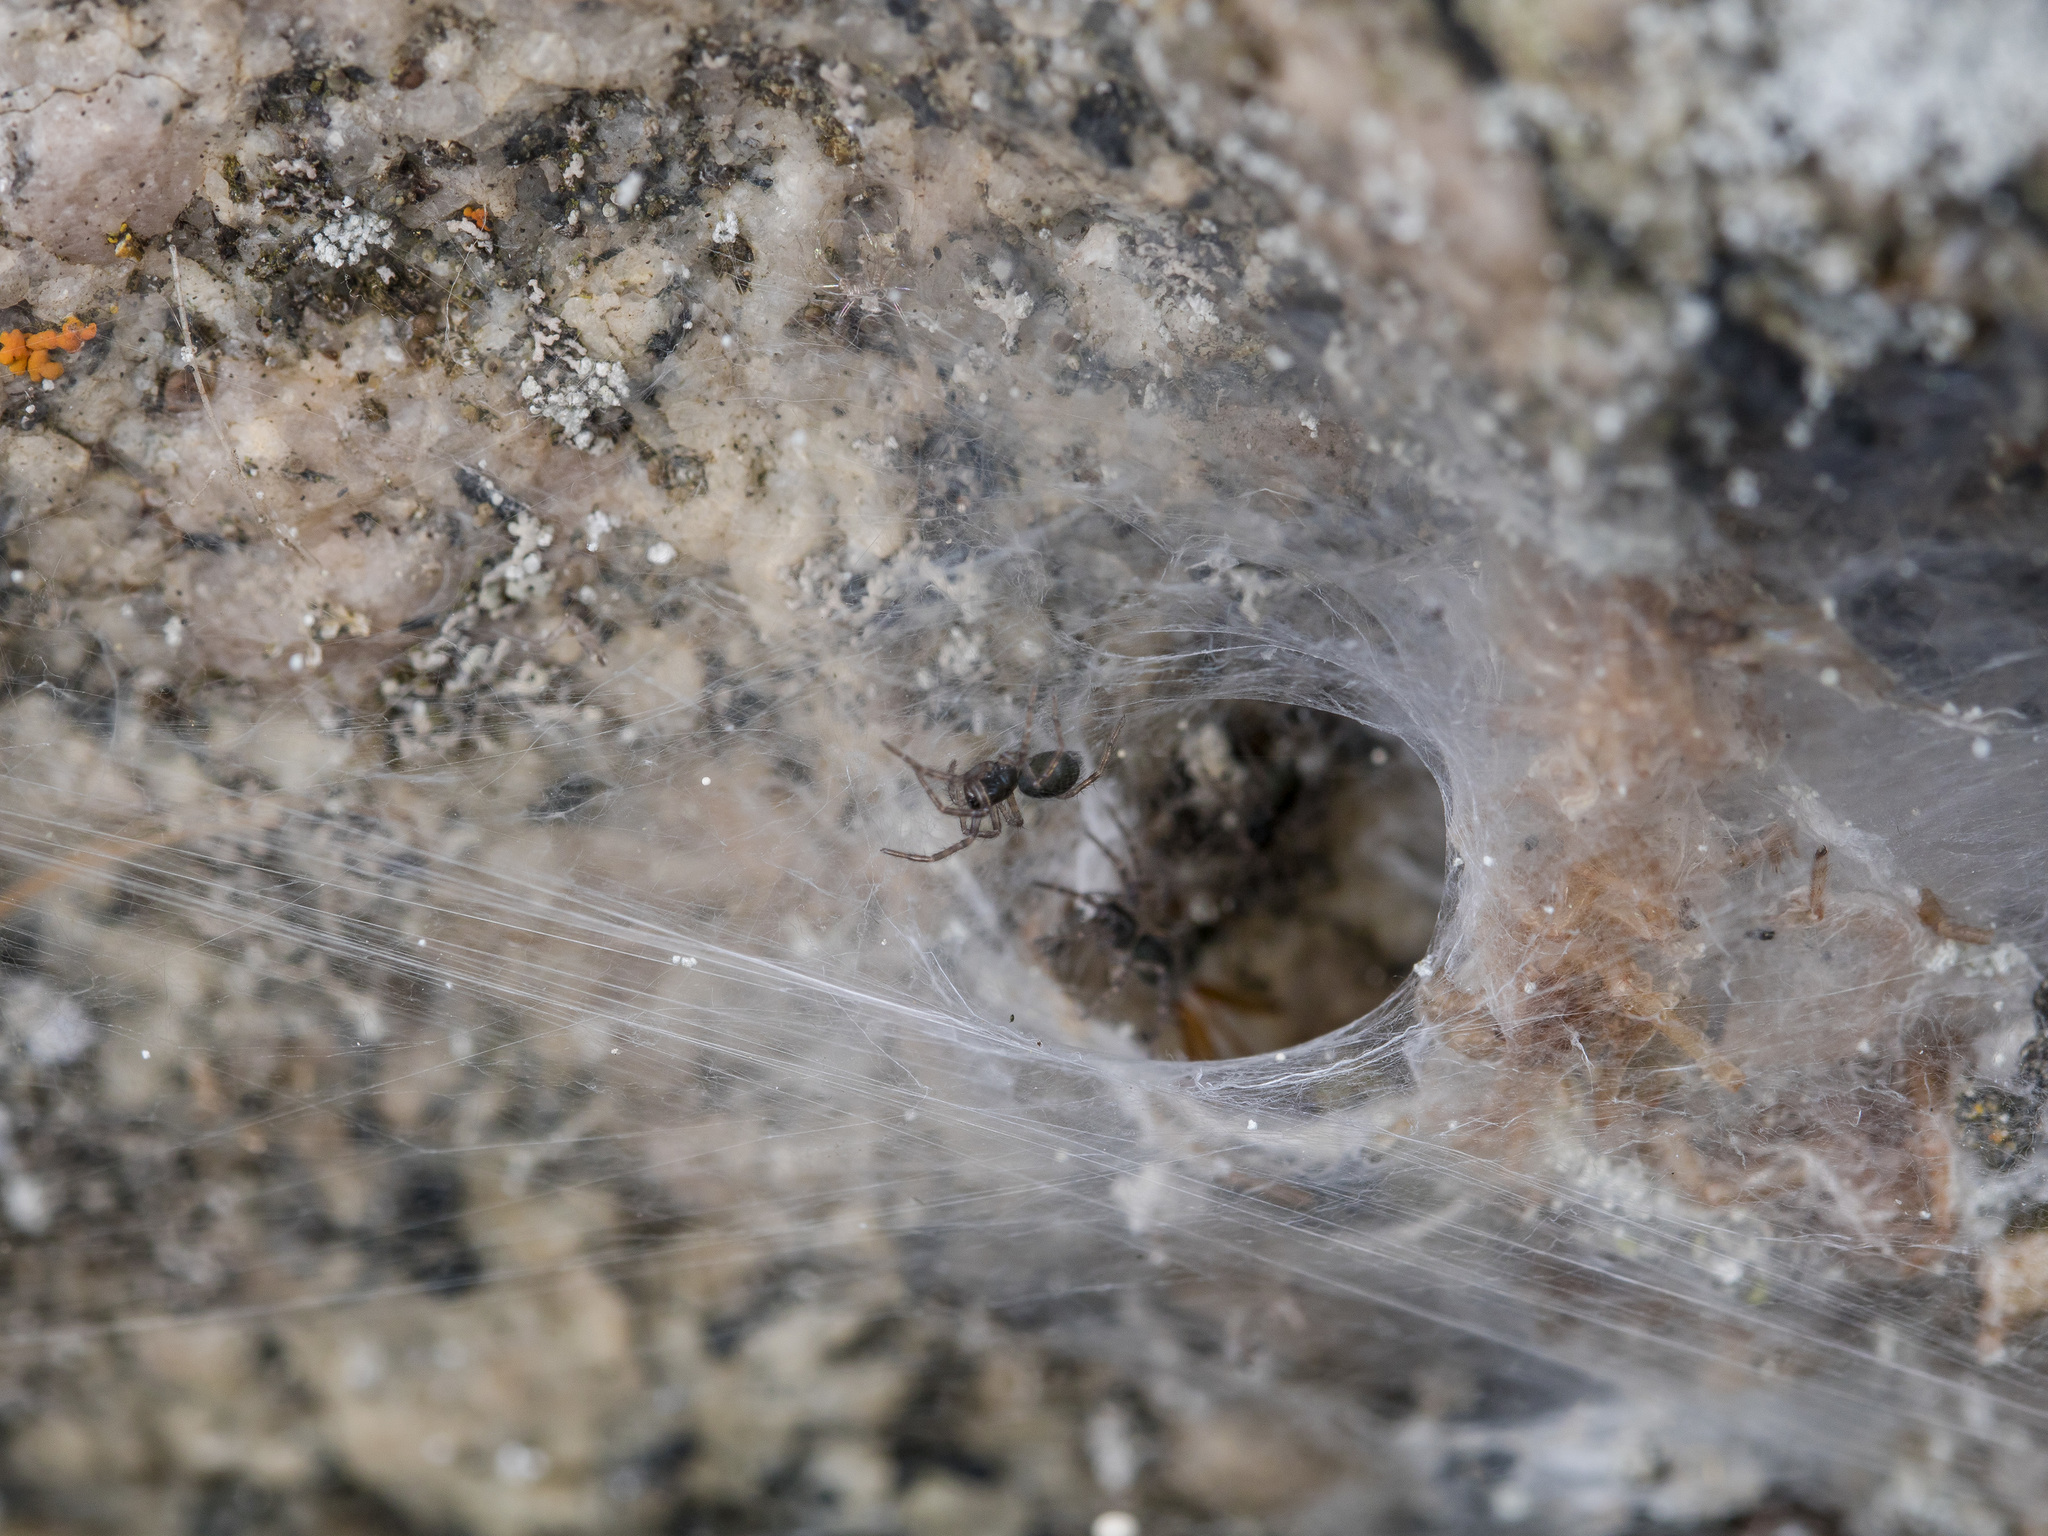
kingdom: Animalia
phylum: Arthropoda
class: Arachnida
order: Araneae
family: Agelenidae
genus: Coelotes
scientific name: Coelotes striatilamnis
